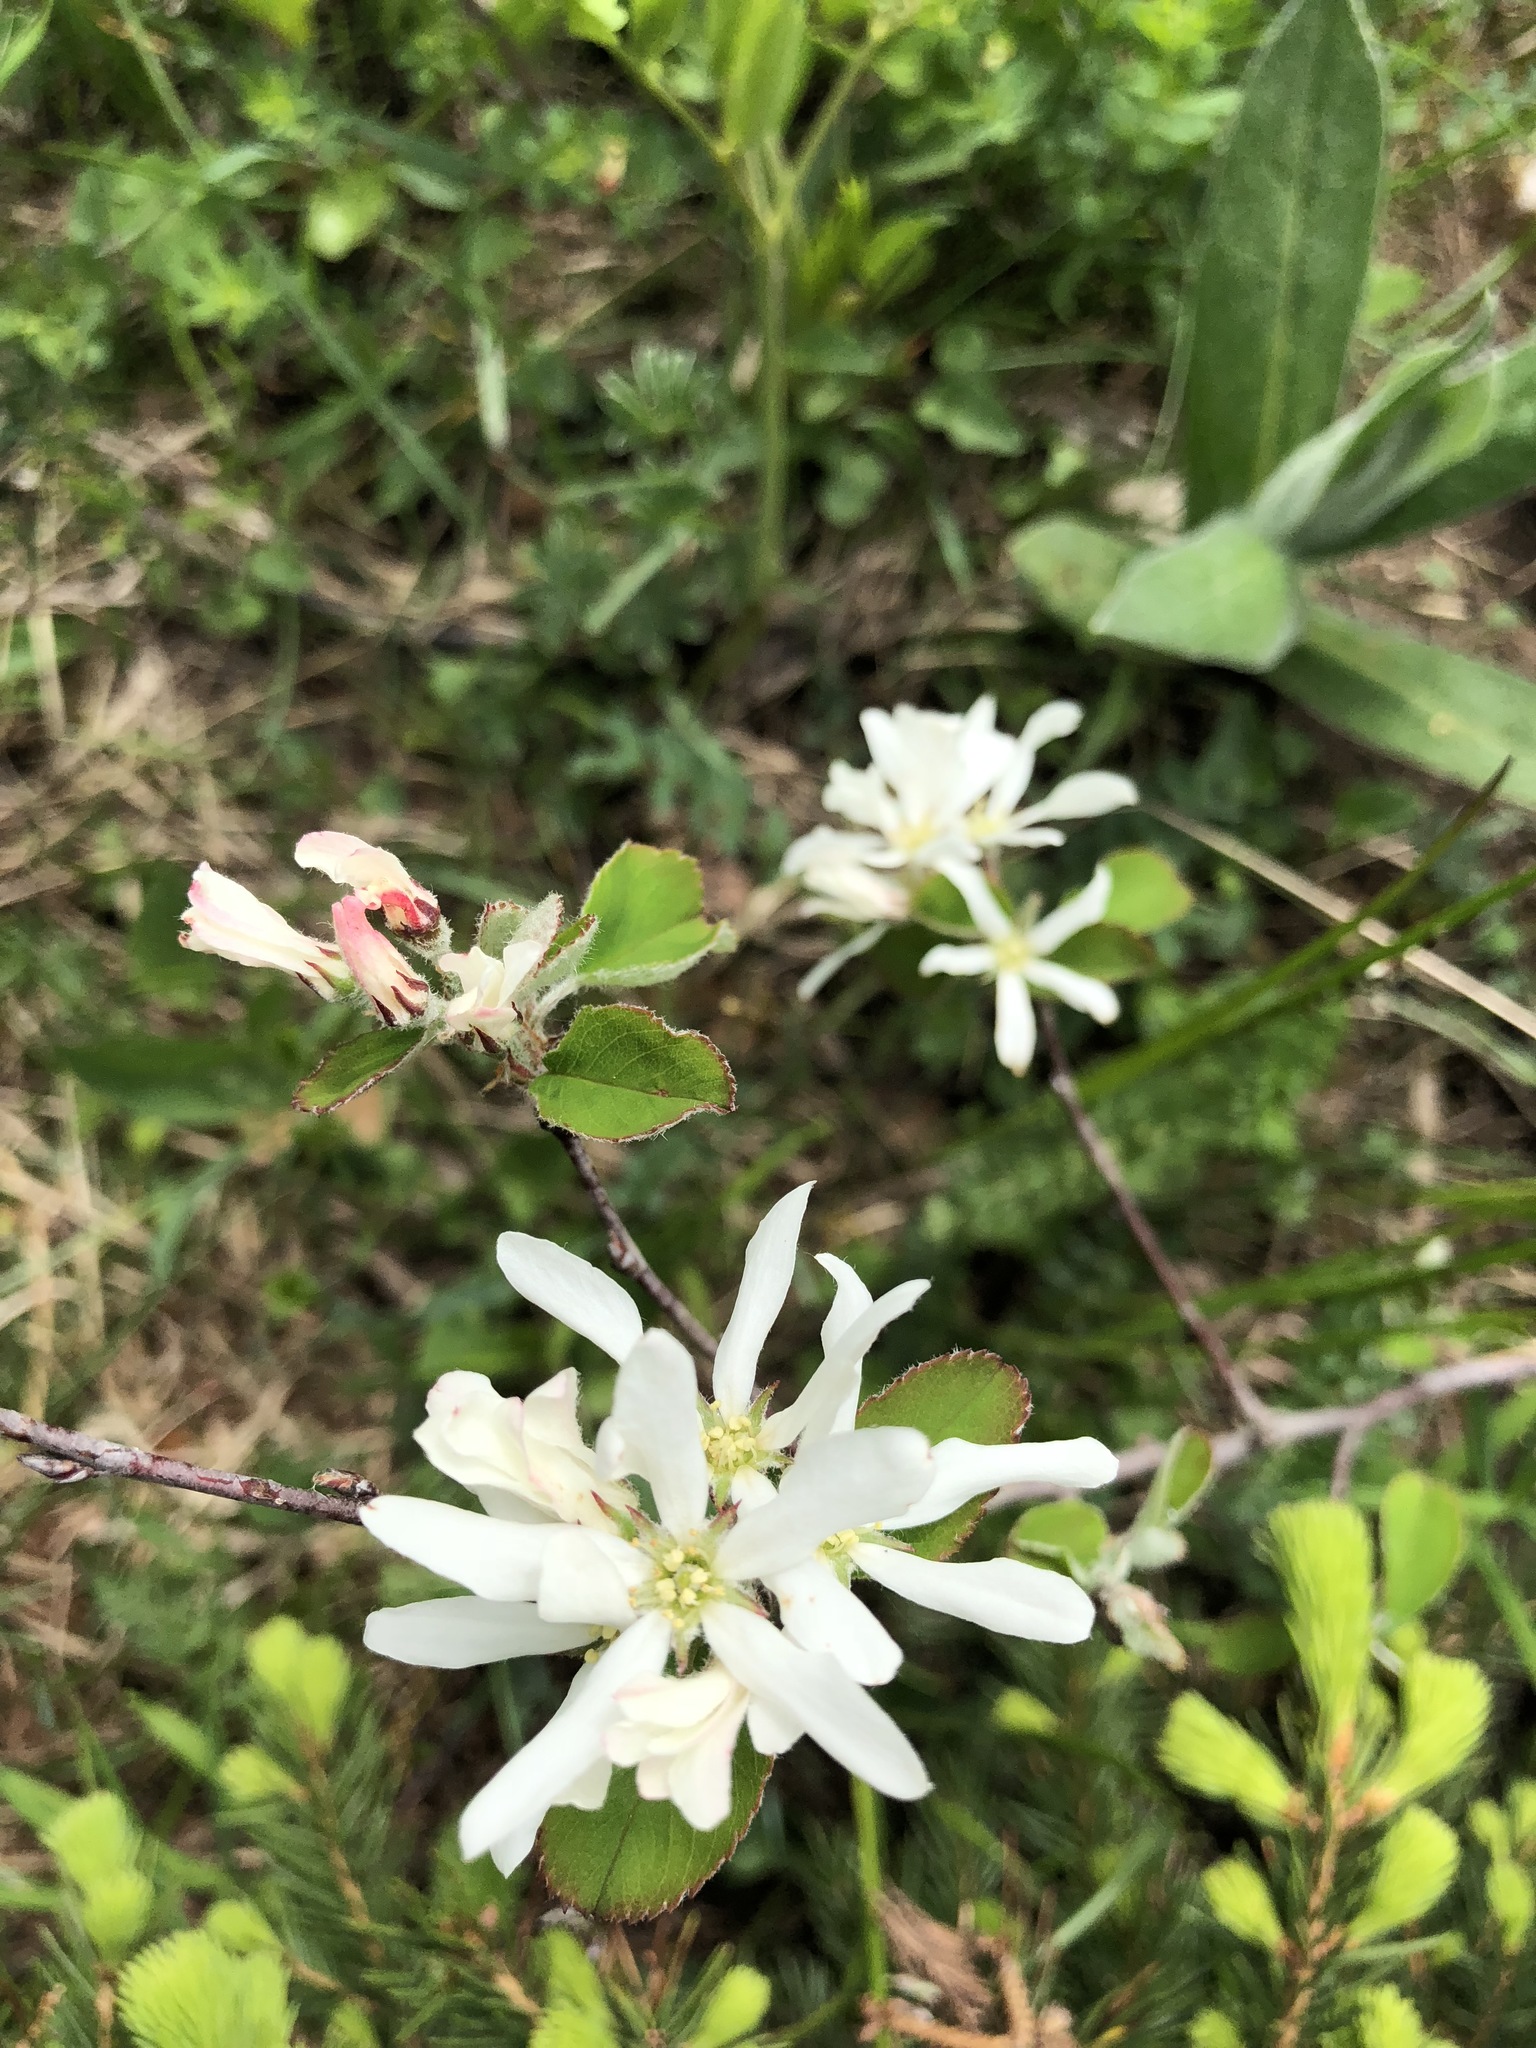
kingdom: Plantae
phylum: Tracheophyta
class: Magnoliopsida
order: Rosales
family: Rosaceae
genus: Amelanchier
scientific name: Amelanchier ovalis
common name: Serviceberry
